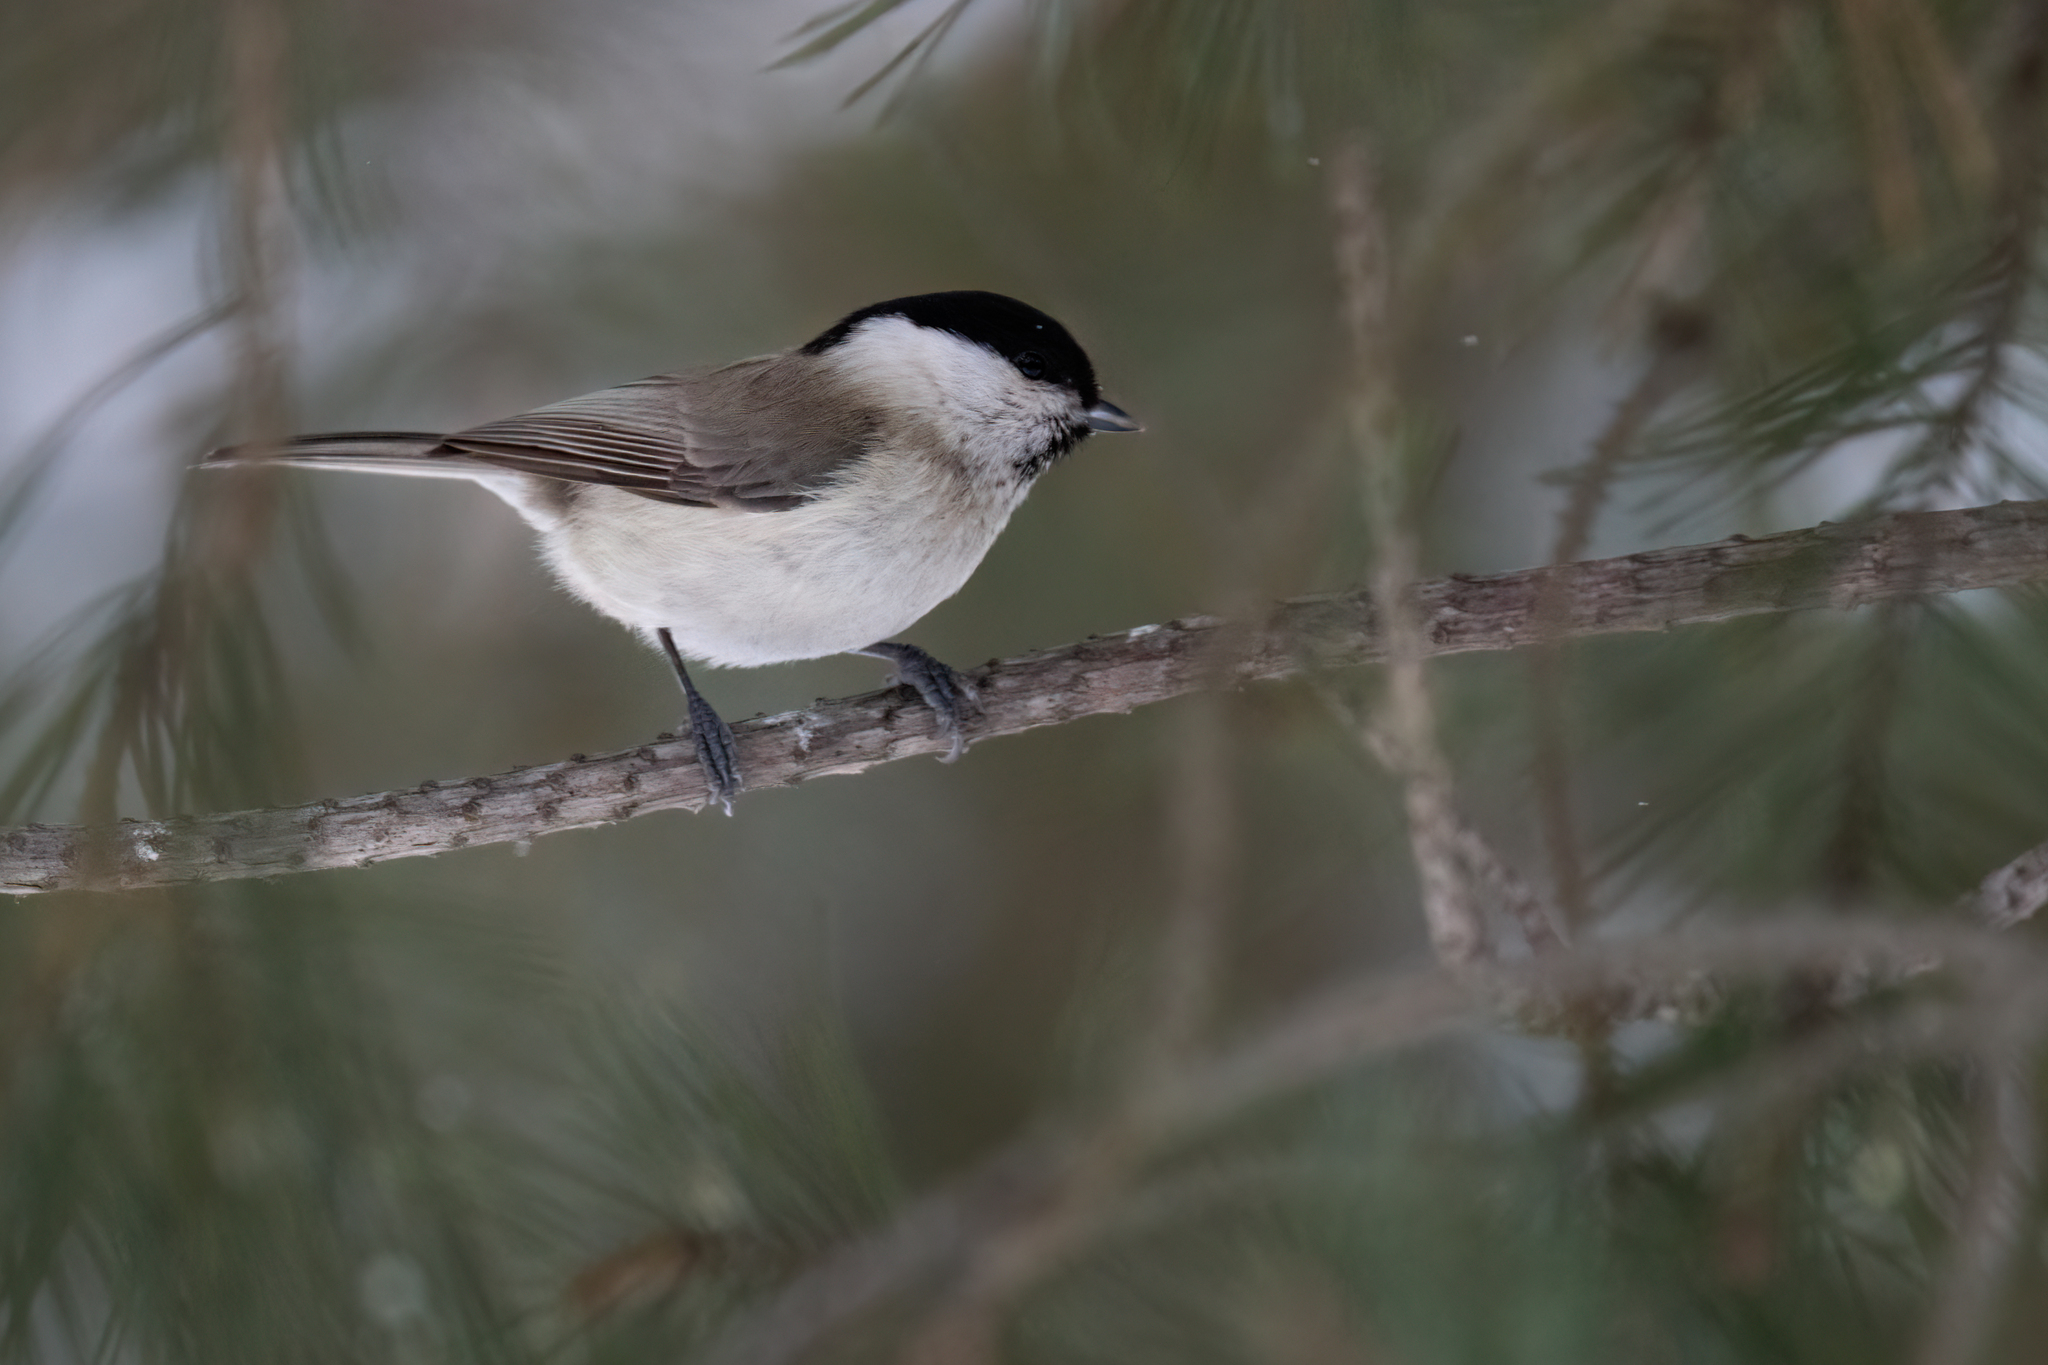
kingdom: Animalia
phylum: Chordata
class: Aves
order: Passeriformes
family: Paridae
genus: Poecile
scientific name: Poecile palustris
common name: Marsh tit
